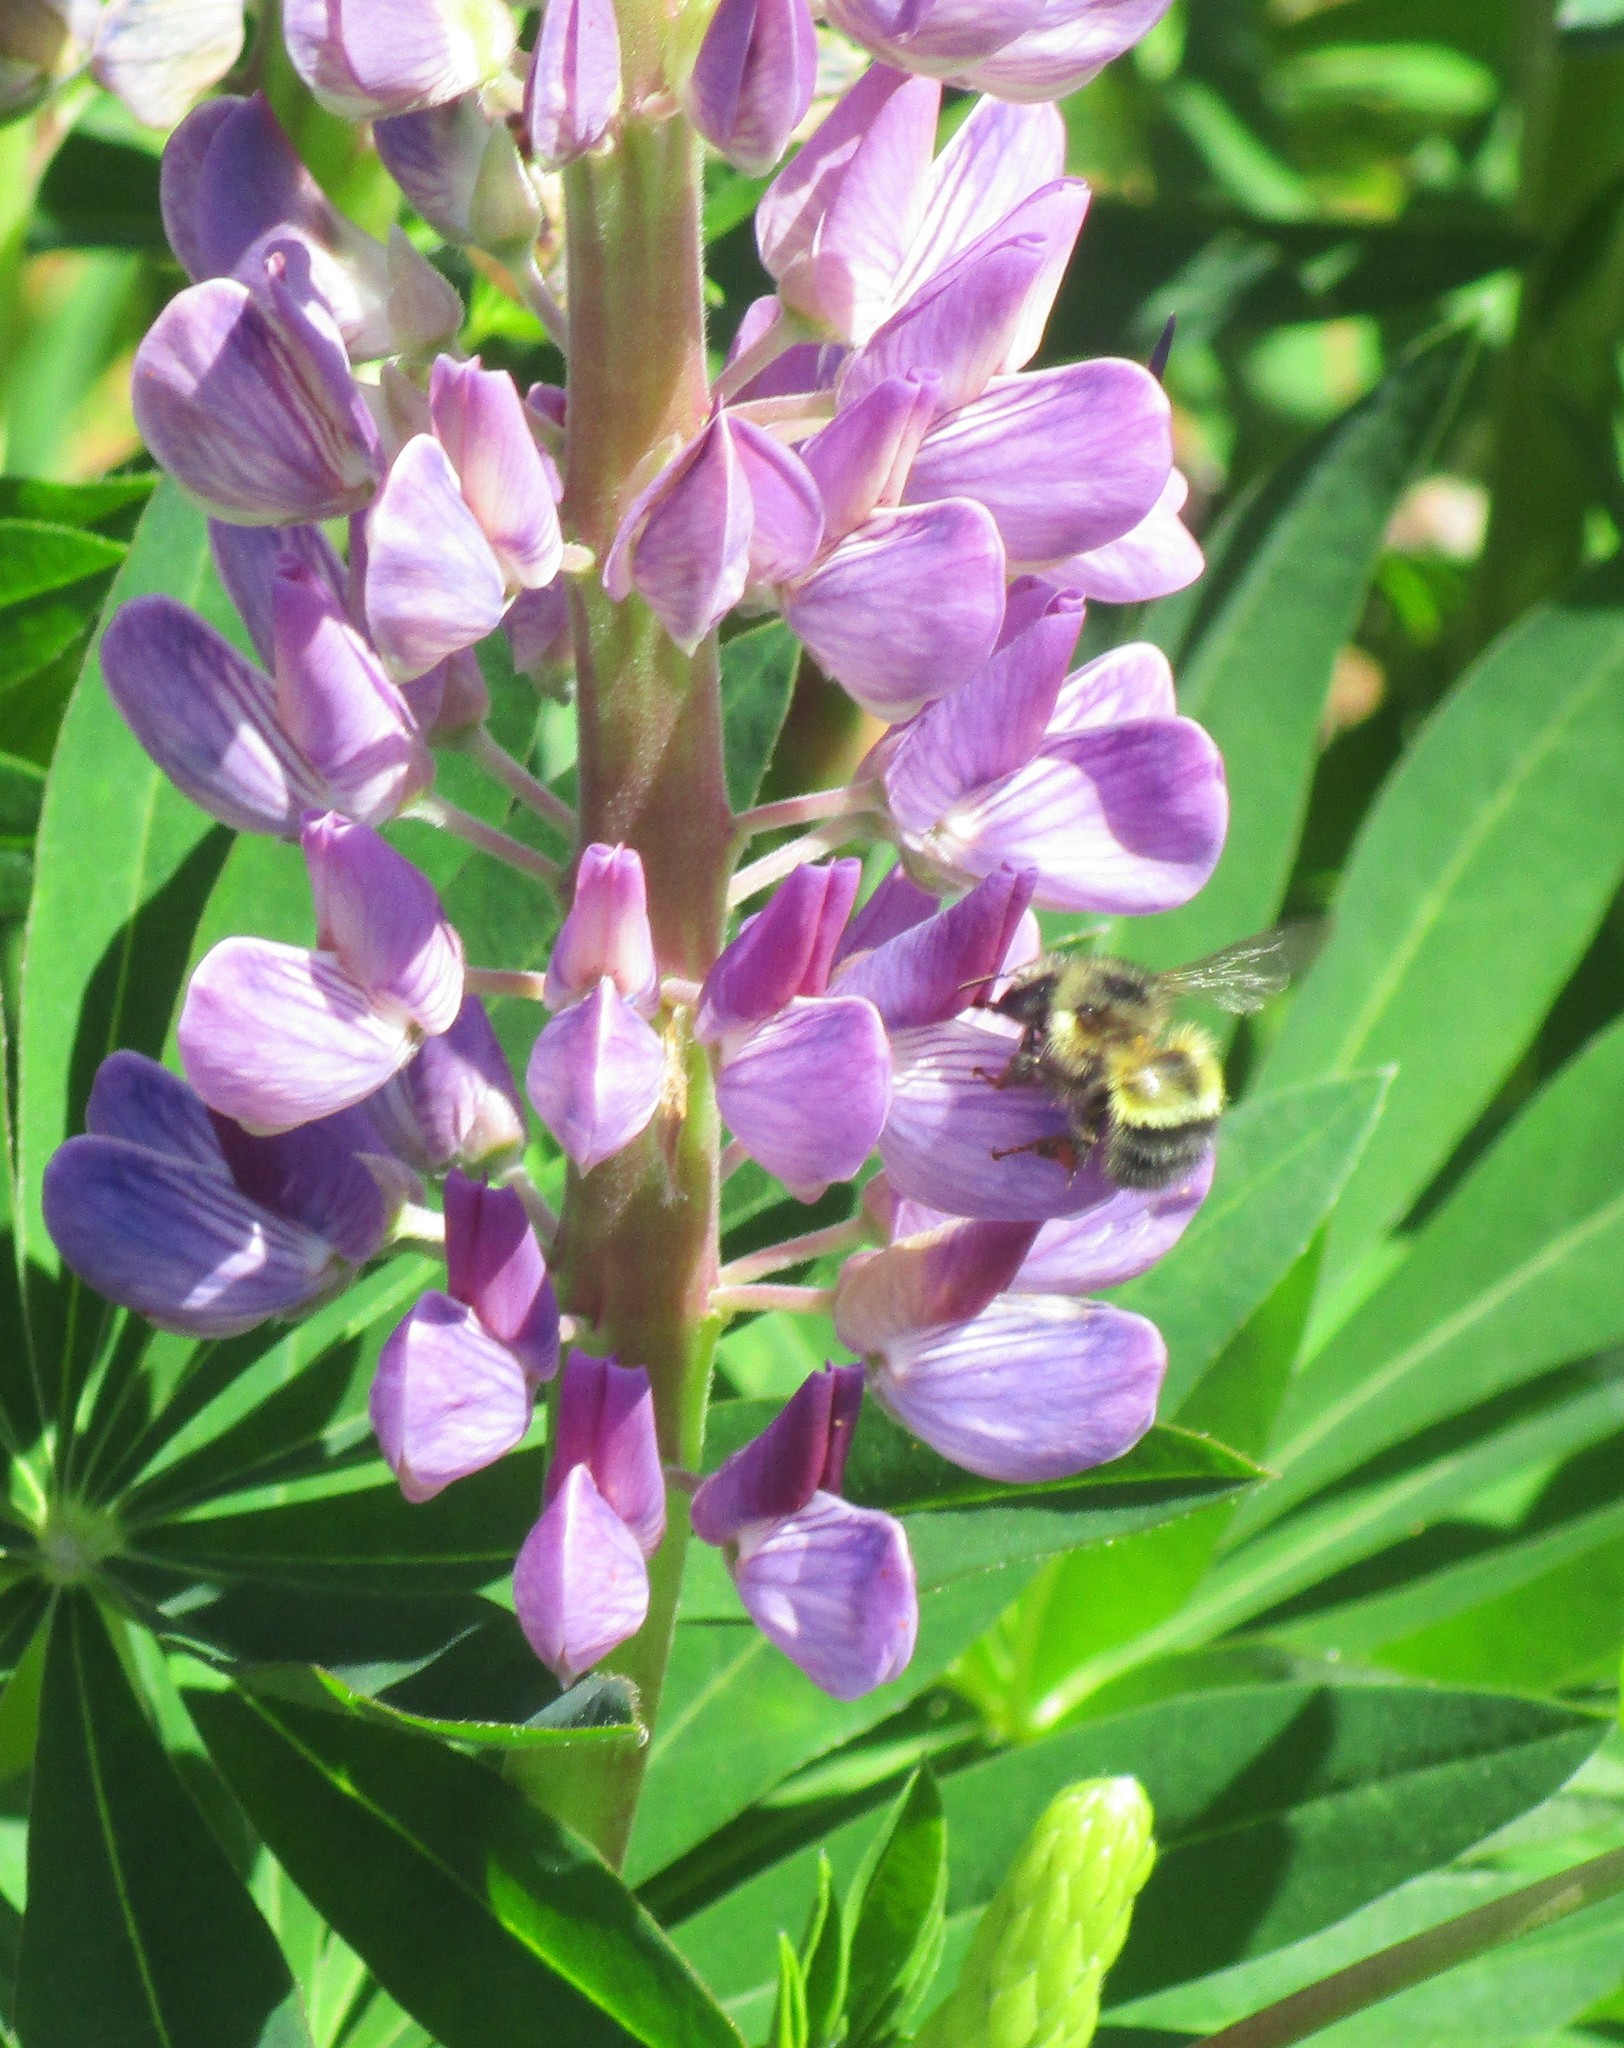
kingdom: Animalia
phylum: Arthropoda
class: Insecta
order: Hymenoptera
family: Apidae
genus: Bombus
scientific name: Bombus flavifrons
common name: Yellow head bumble bee
